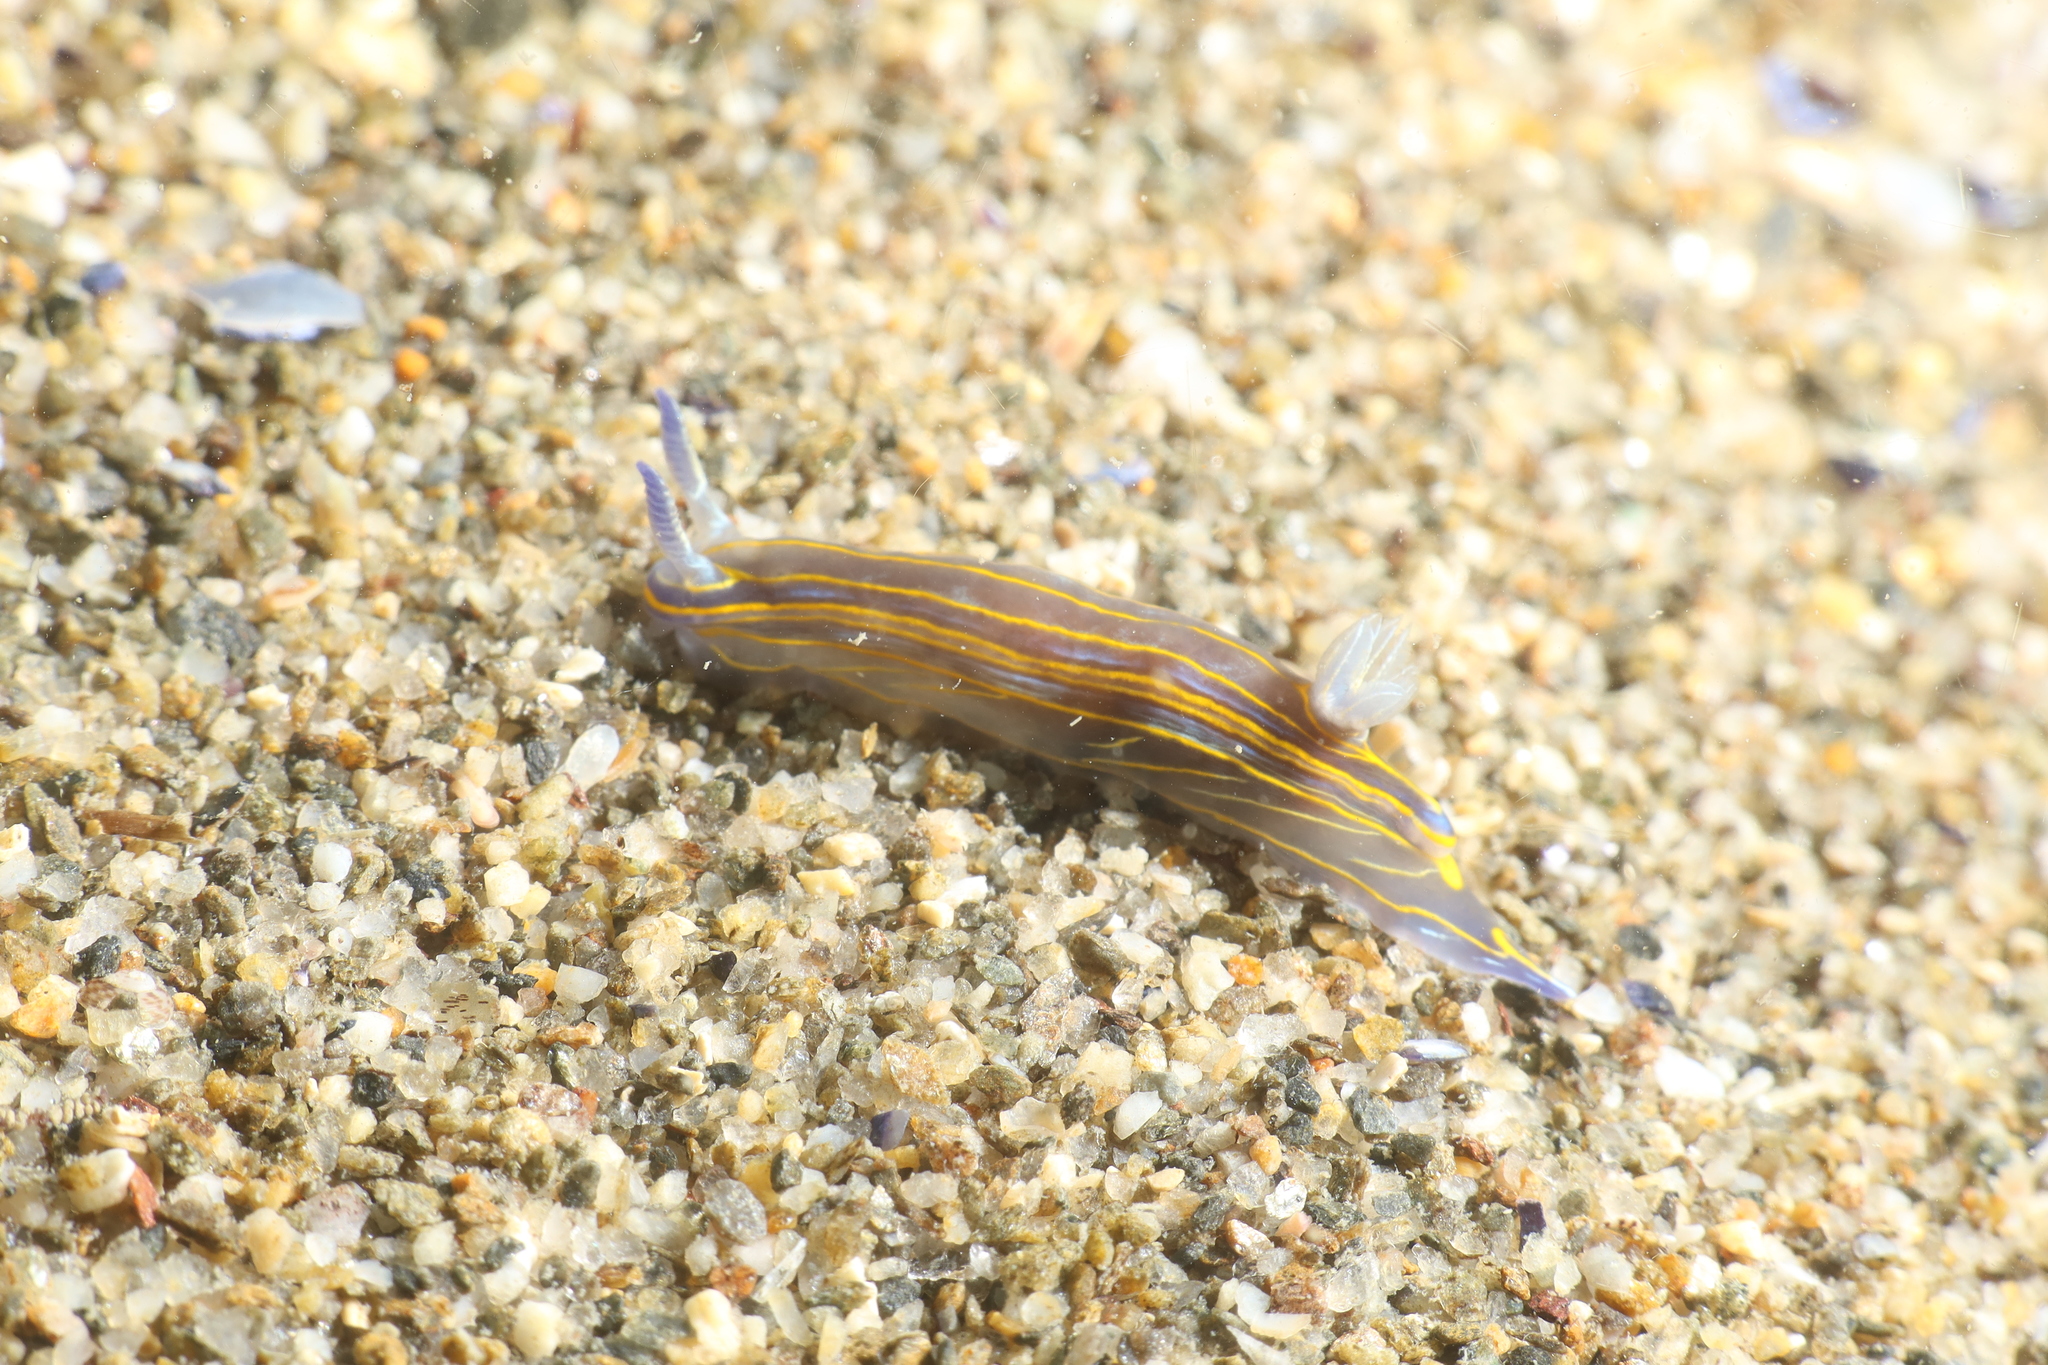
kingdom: Animalia
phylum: Mollusca
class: Gastropoda
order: Nudibranchia
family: Chromodorididae
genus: Felimare
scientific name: Felimare villafranca
